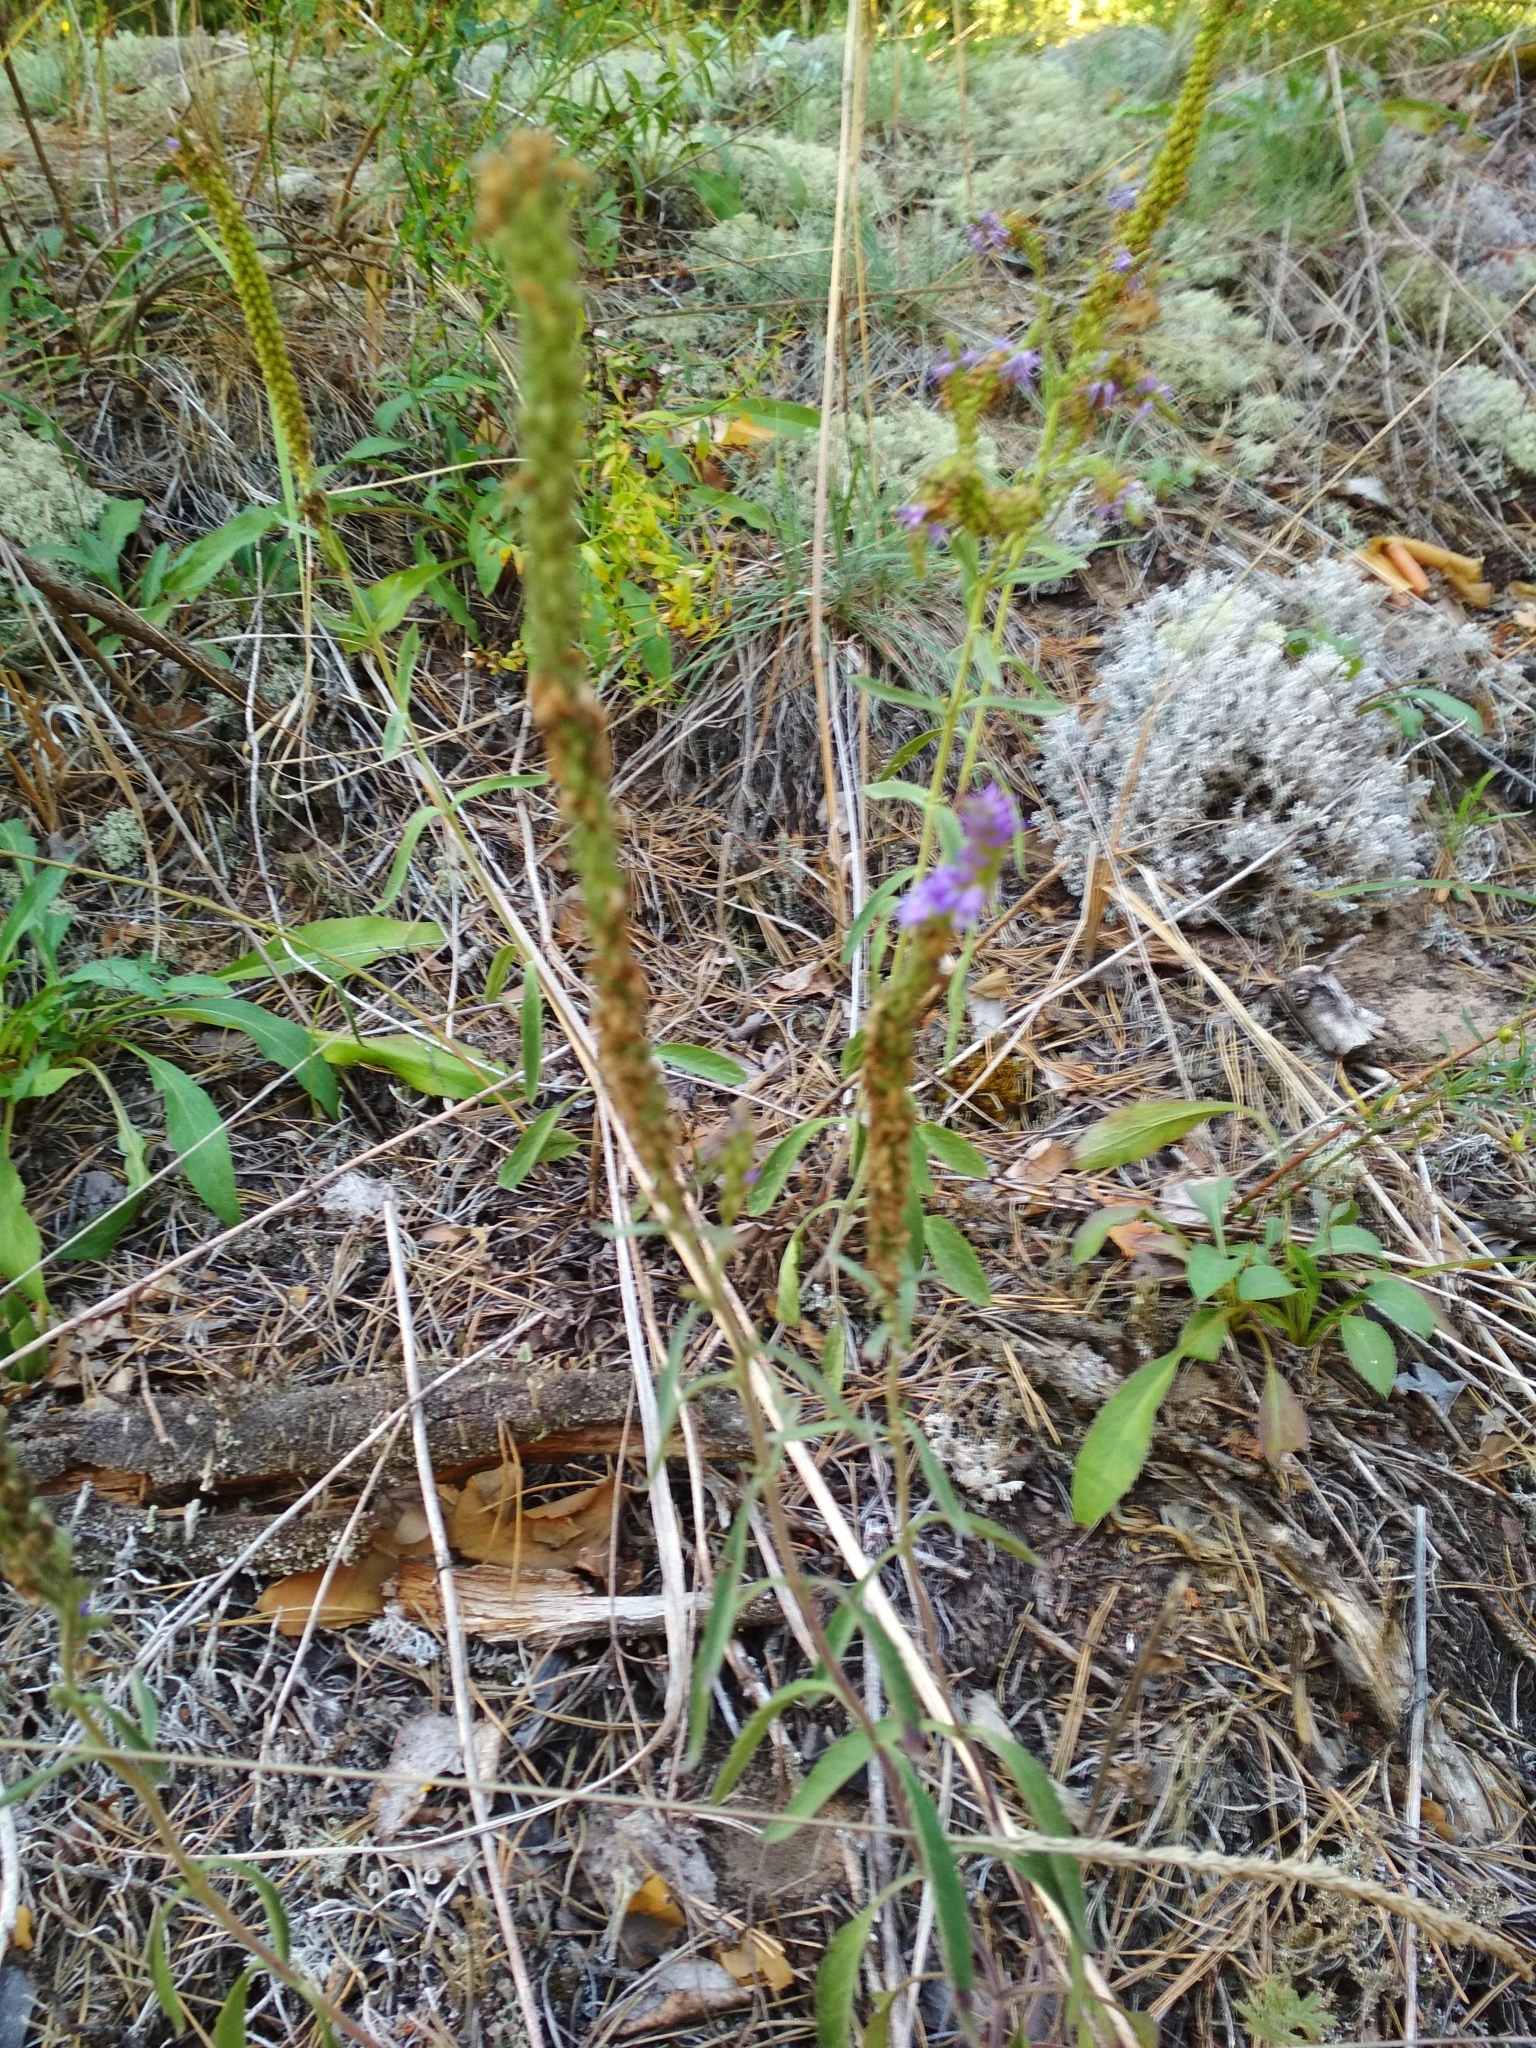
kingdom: Plantae
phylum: Tracheophyta
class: Magnoliopsida
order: Lamiales
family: Plantaginaceae
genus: Veronica
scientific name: Veronica spicata
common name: Spiked speedwell
